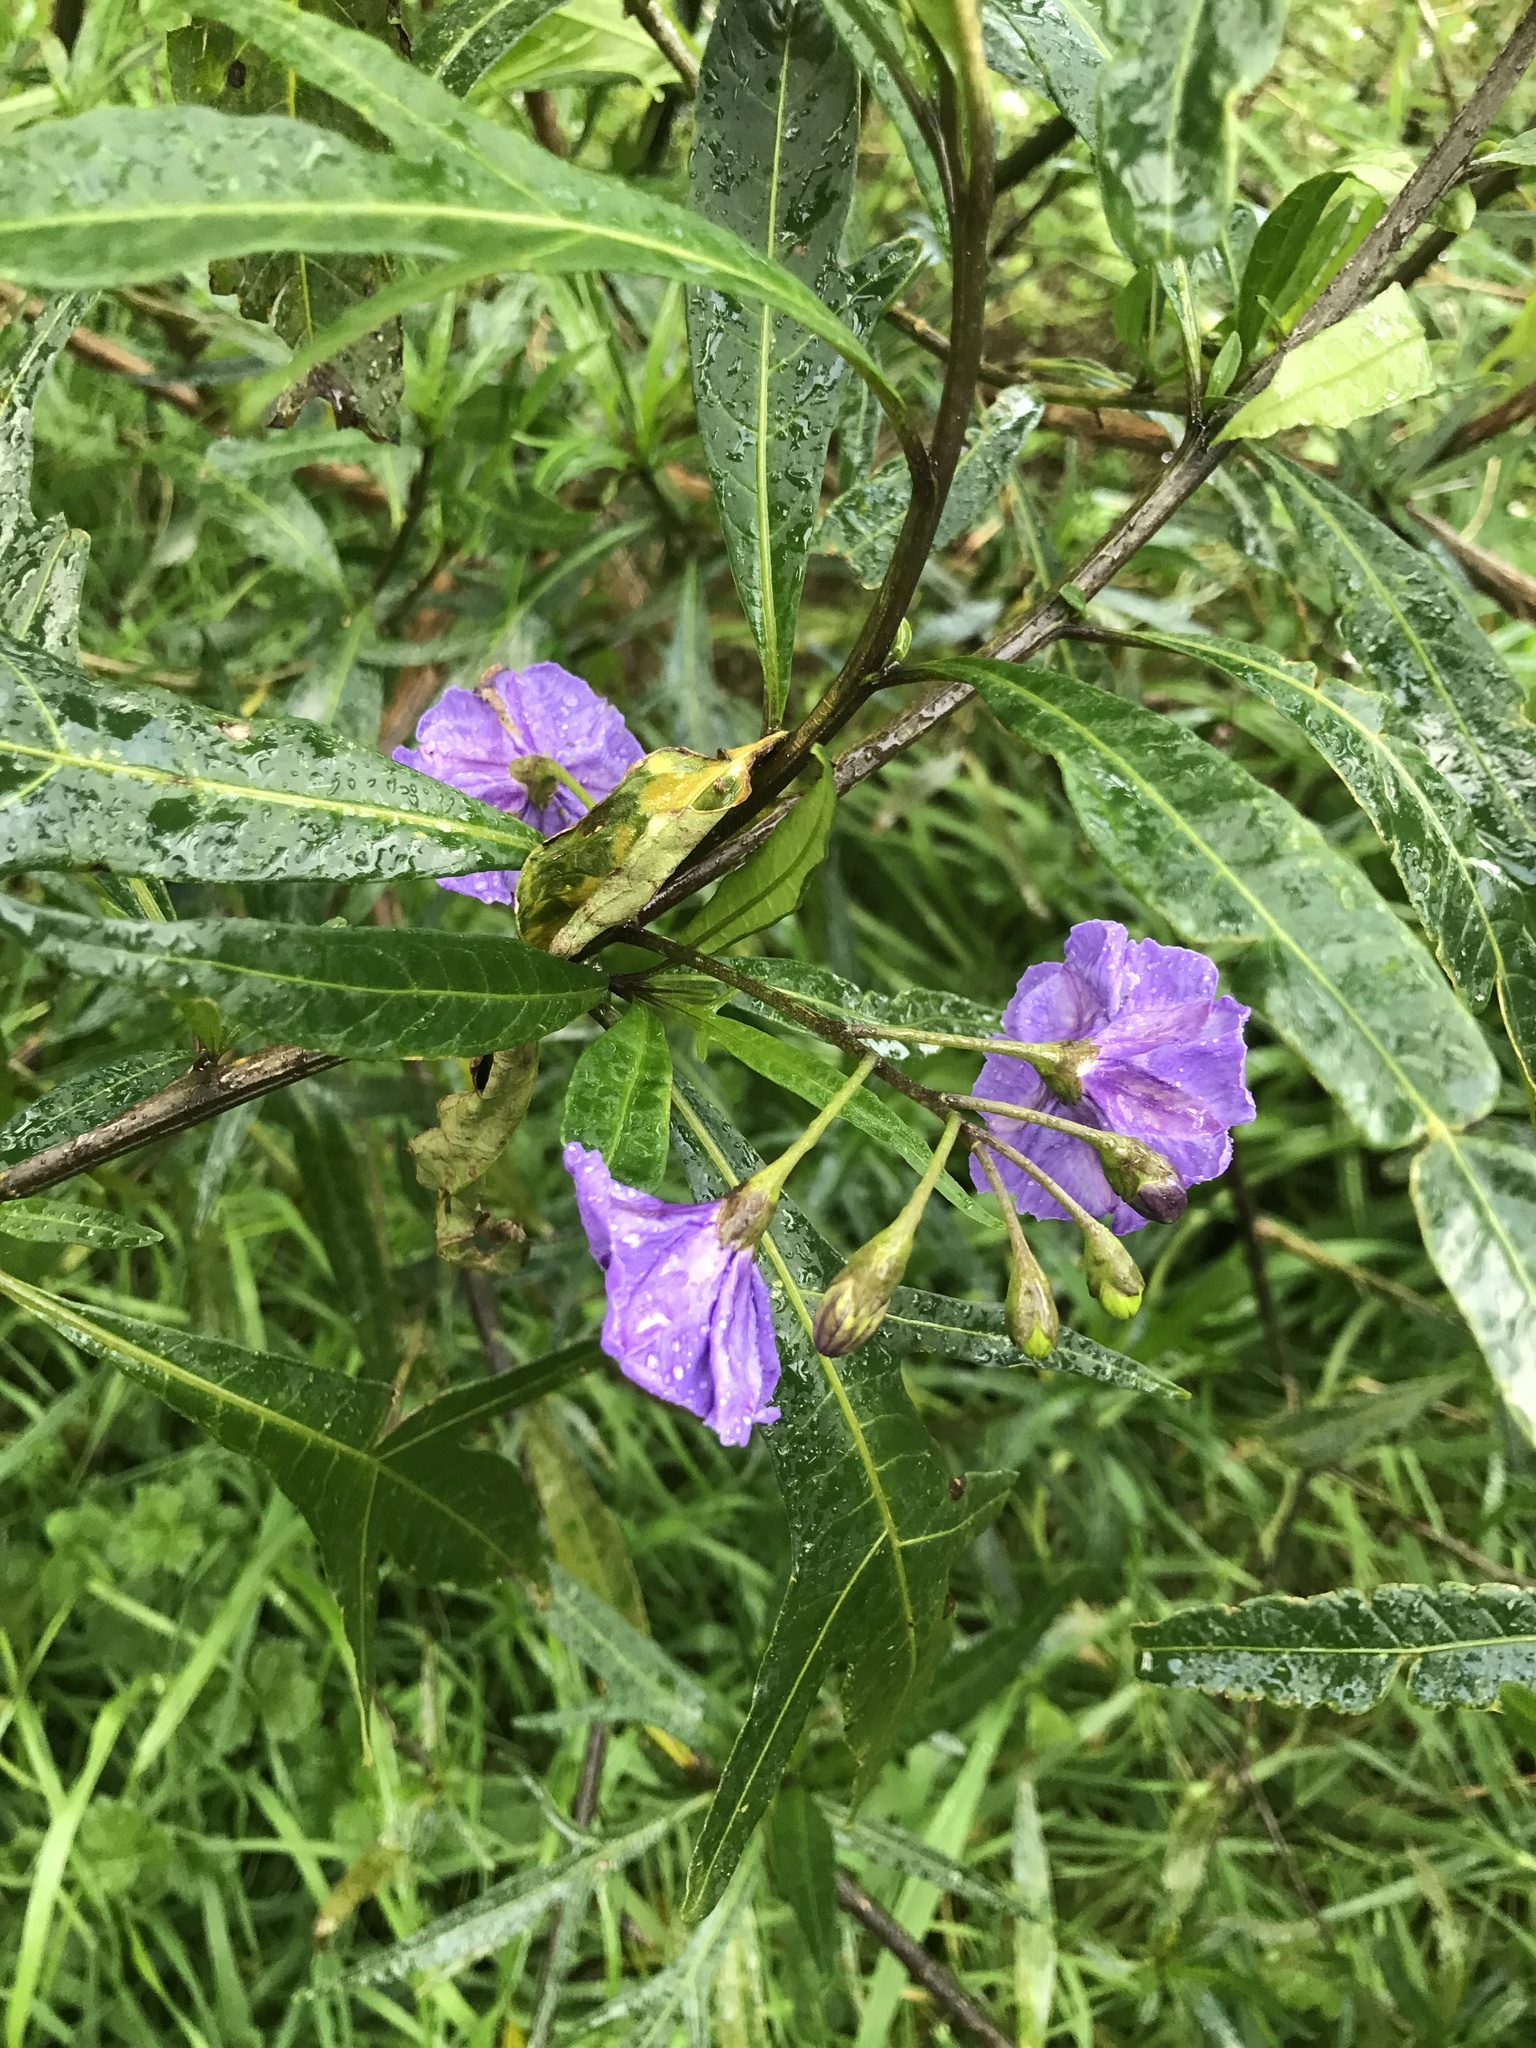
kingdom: Plantae
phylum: Tracheophyta
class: Magnoliopsida
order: Solanales
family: Solanaceae
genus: Solanum
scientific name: Solanum laciniatum
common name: Kangaroo-apple
